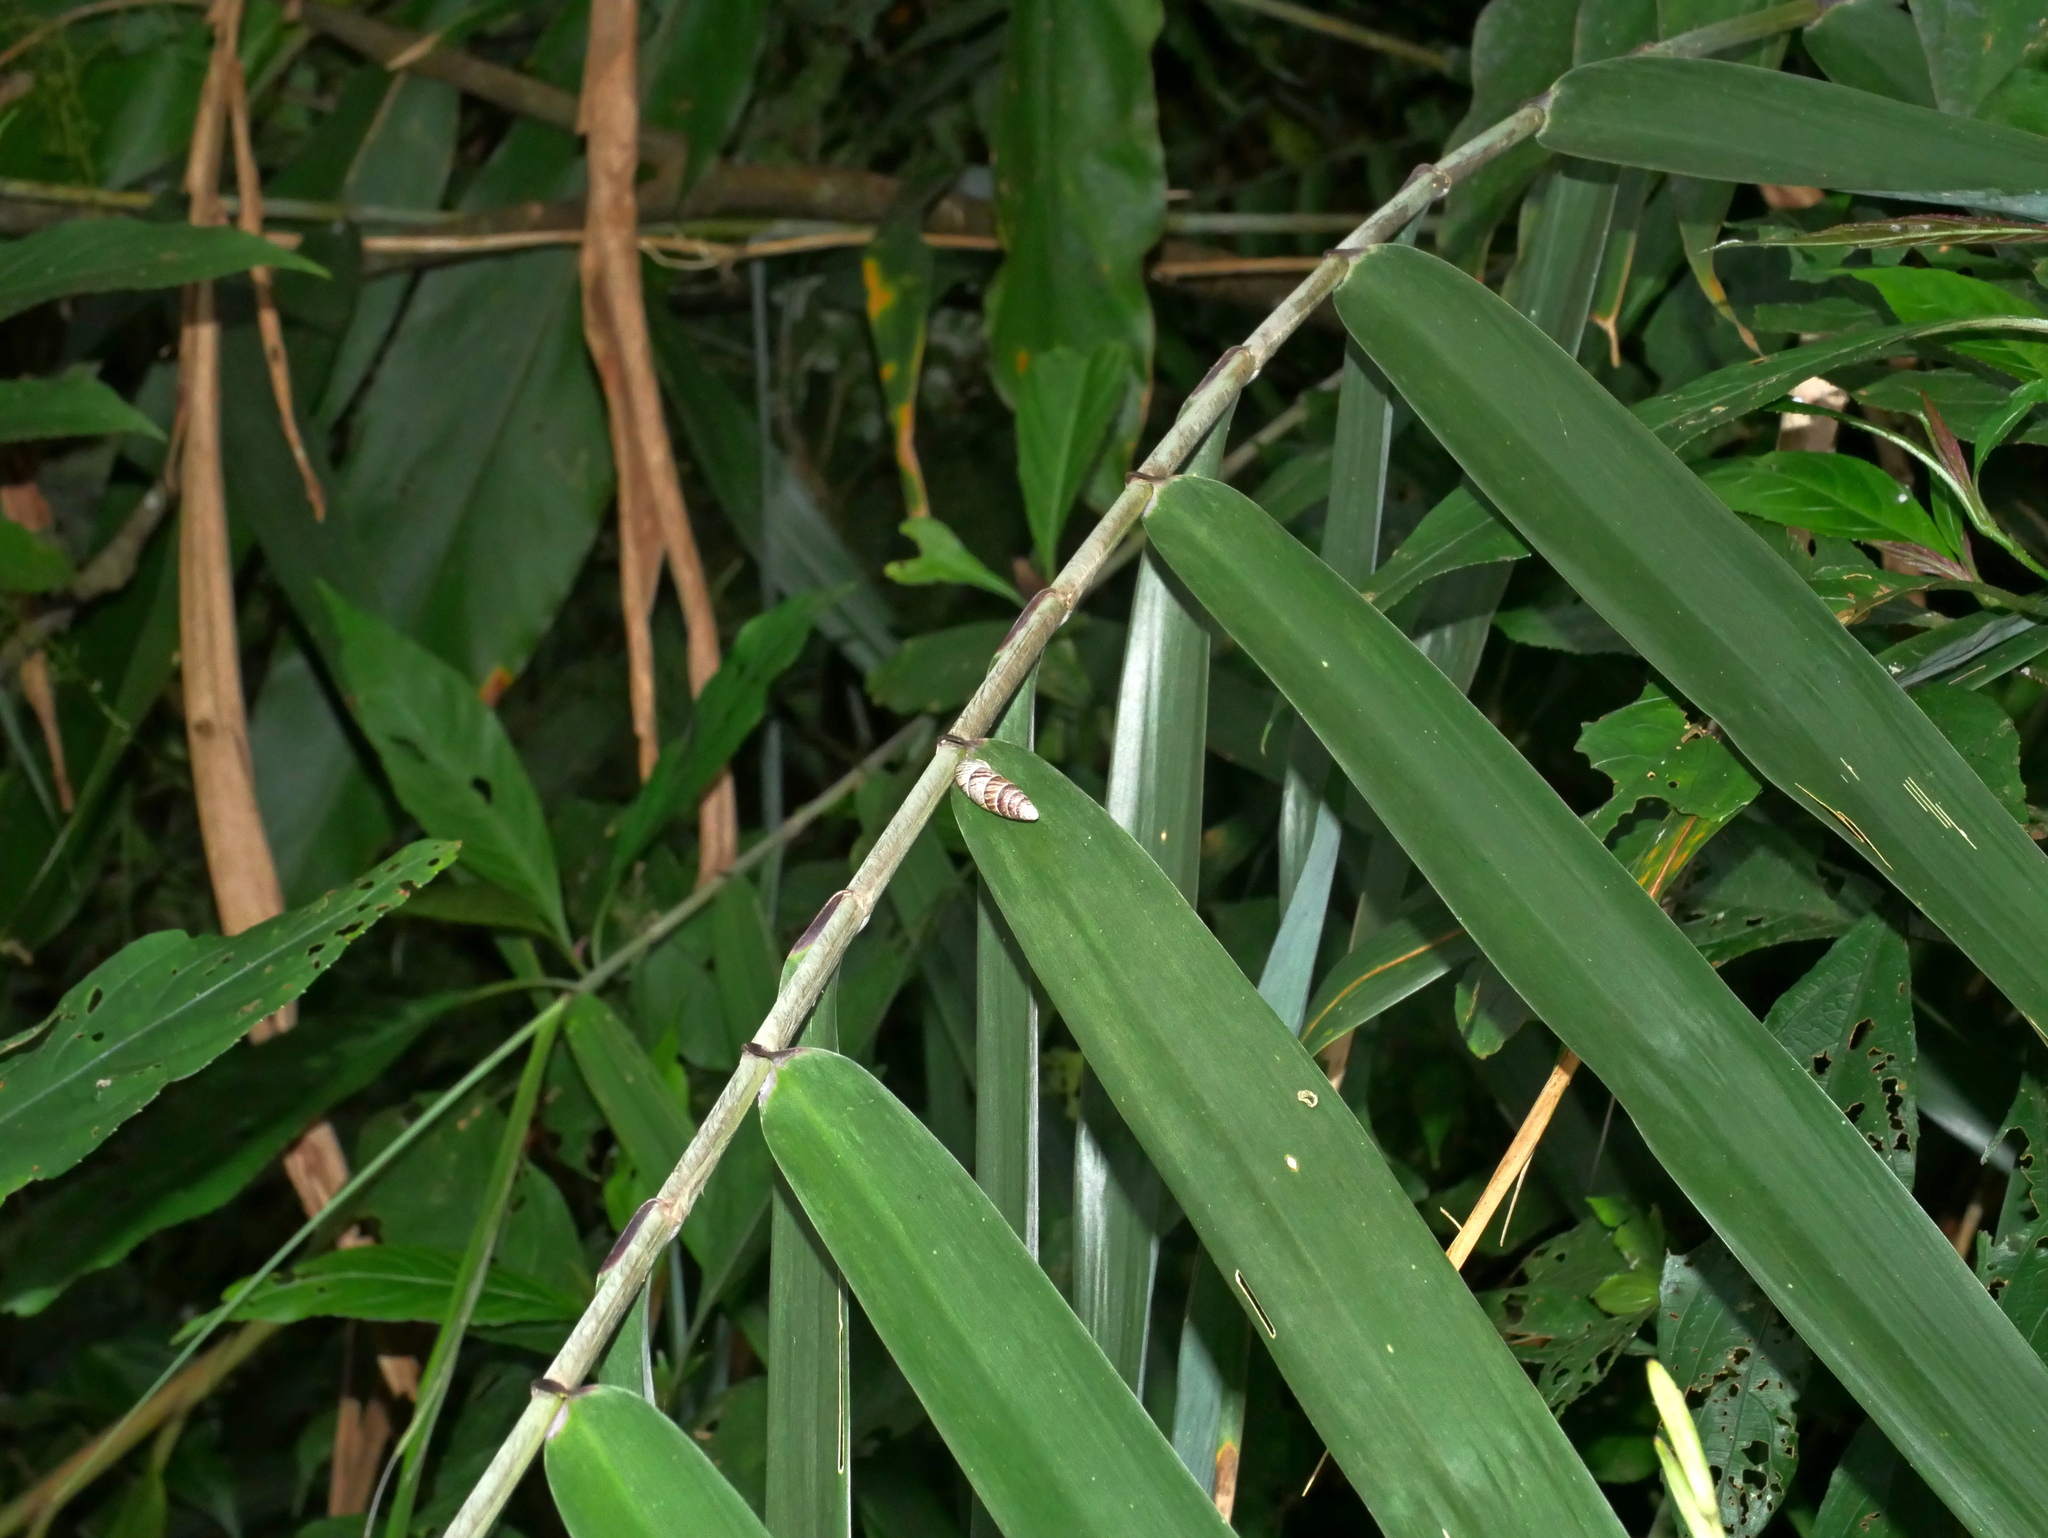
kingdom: Plantae
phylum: Tracheophyta
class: Liliopsida
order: Poales
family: Poaceae
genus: Thysanolaena
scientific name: Thysanolaena latifolia
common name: Tiger grass
